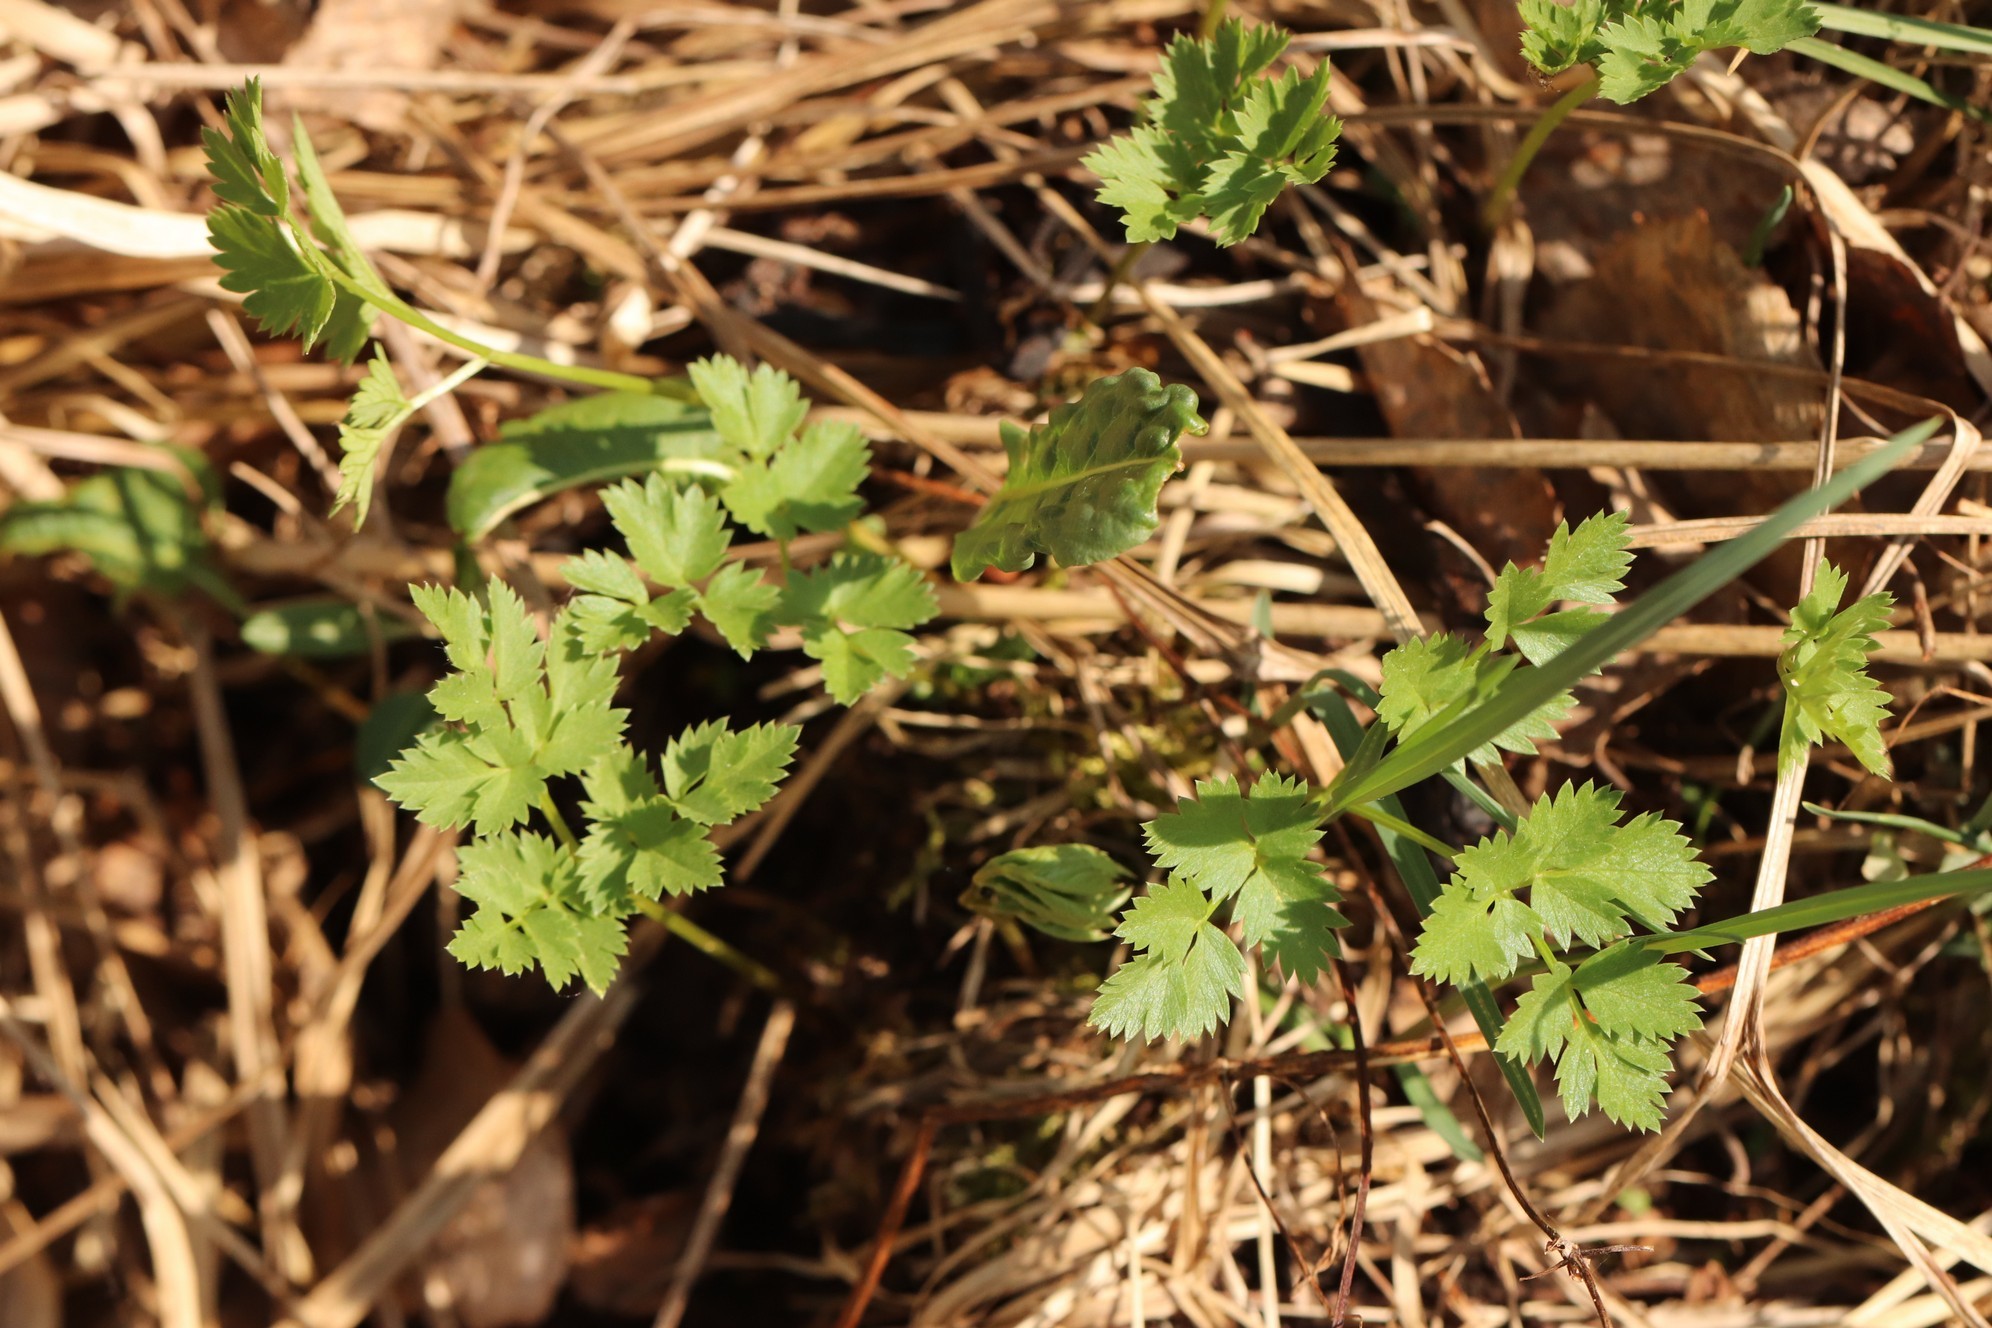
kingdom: Plantae
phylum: Tracheophyta
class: Magnoliopsida
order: Apiales
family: Apiaceae
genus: Aegopodium
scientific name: Aegopodium alpestre
